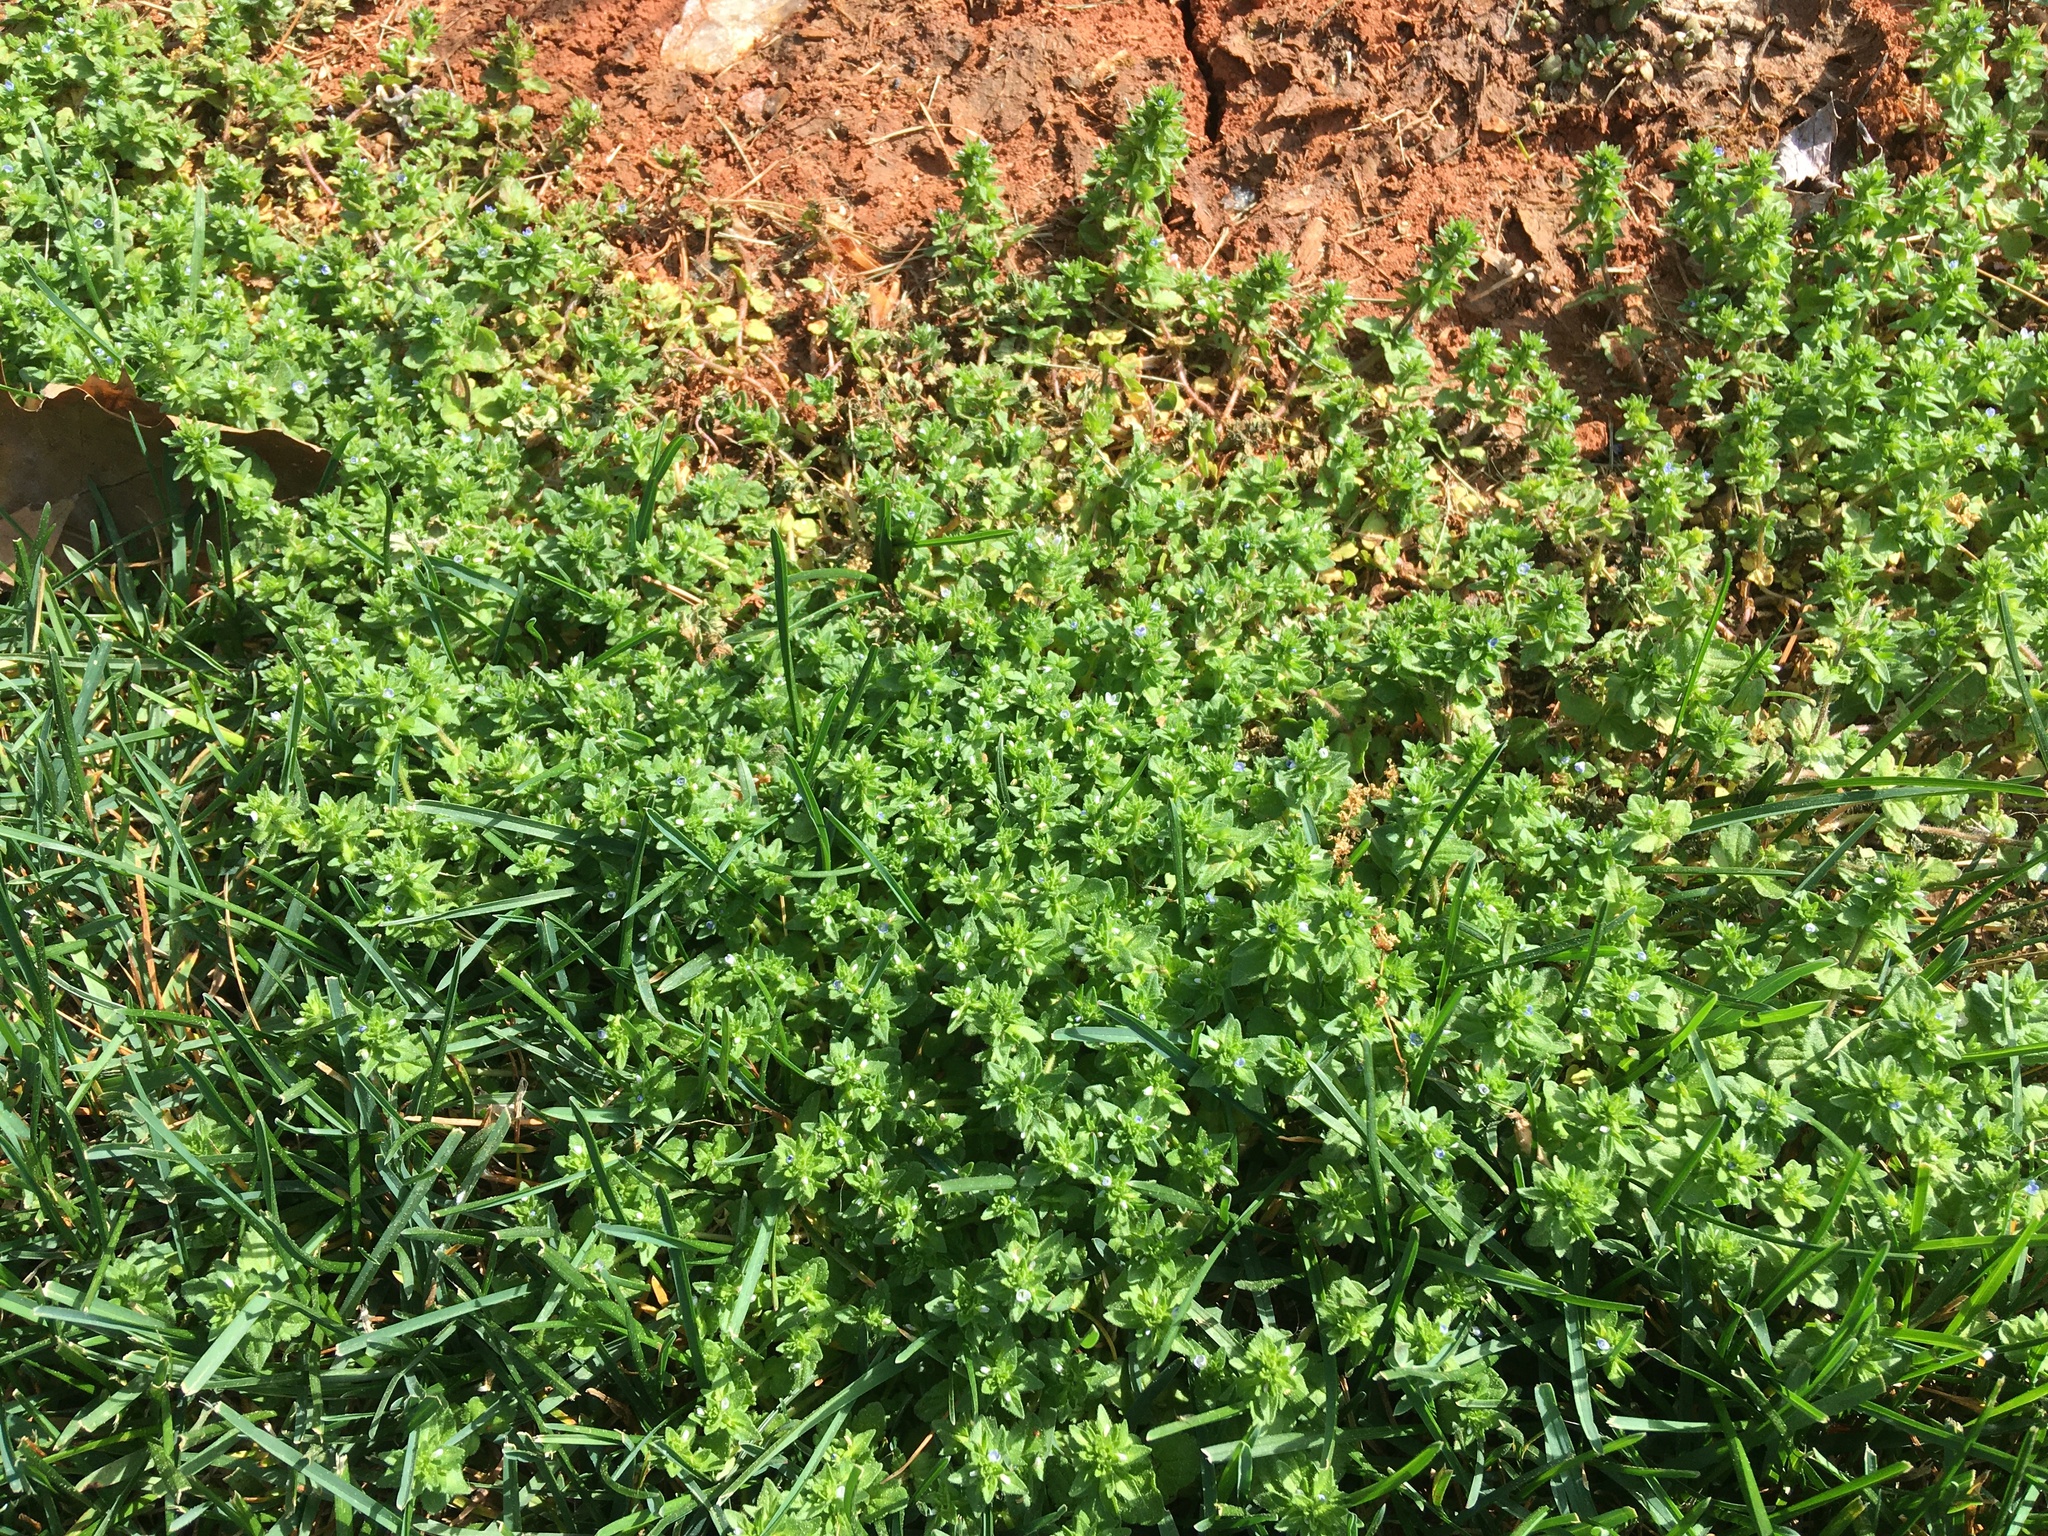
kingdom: Plantae
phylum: Tracheophyta
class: Magnoliopsida
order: Lamiales
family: Plantaginaceae
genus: Veronica
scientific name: Veronica arvensis
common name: Corn speedwell
